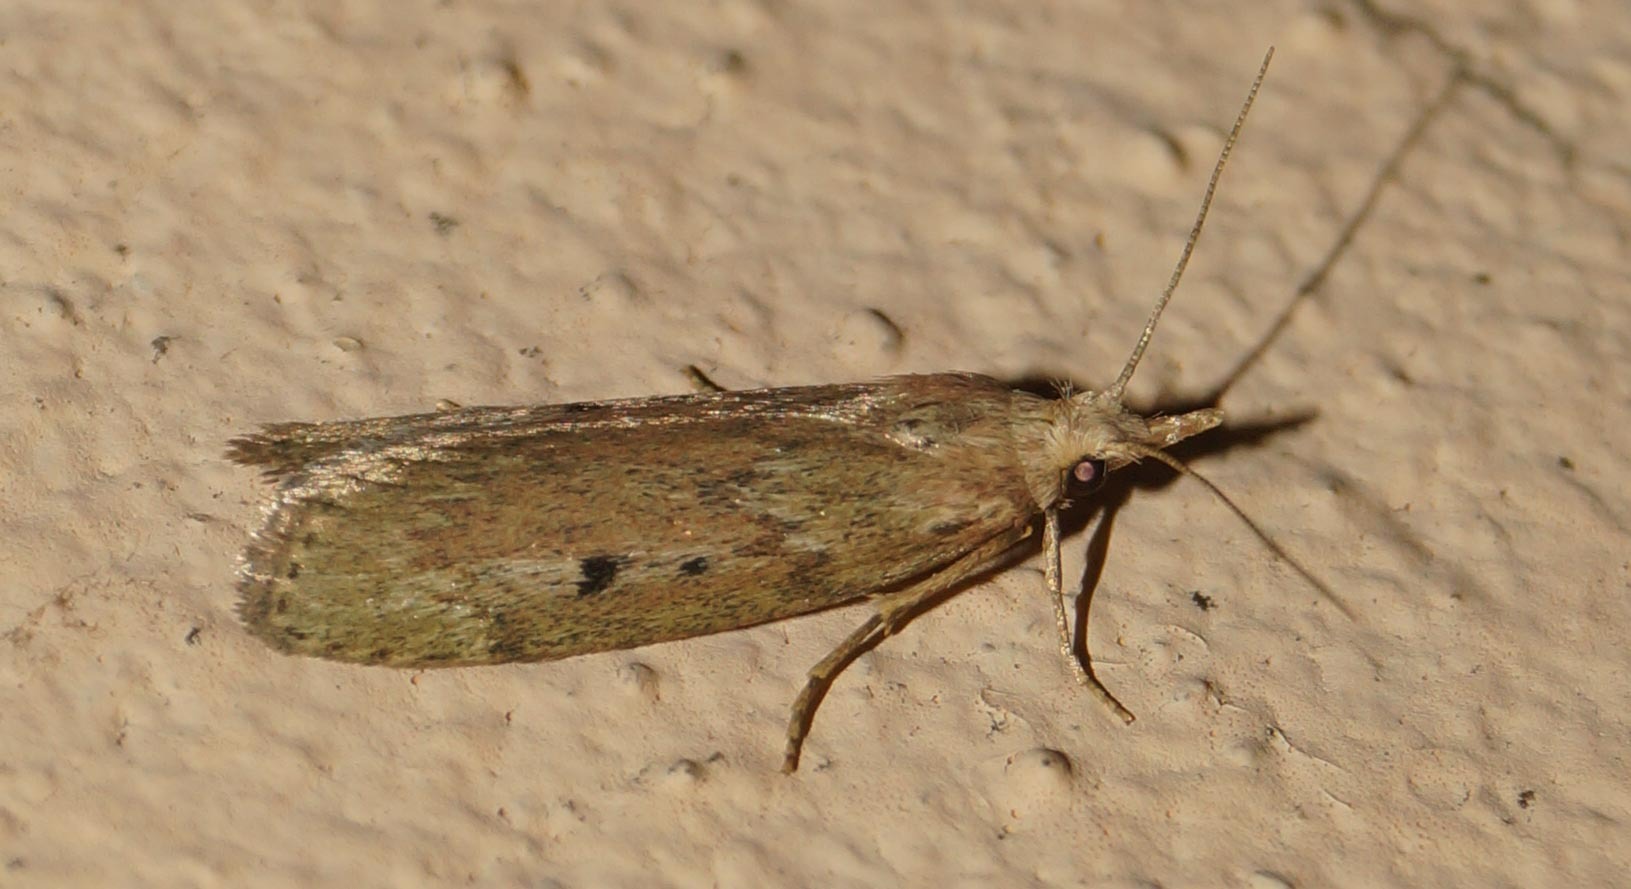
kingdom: Animalia
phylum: Arthropoda
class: Insecta
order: Lepidoptera
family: Pyralidae
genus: Aphomia
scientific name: Aphomia sociella
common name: Bee moth
